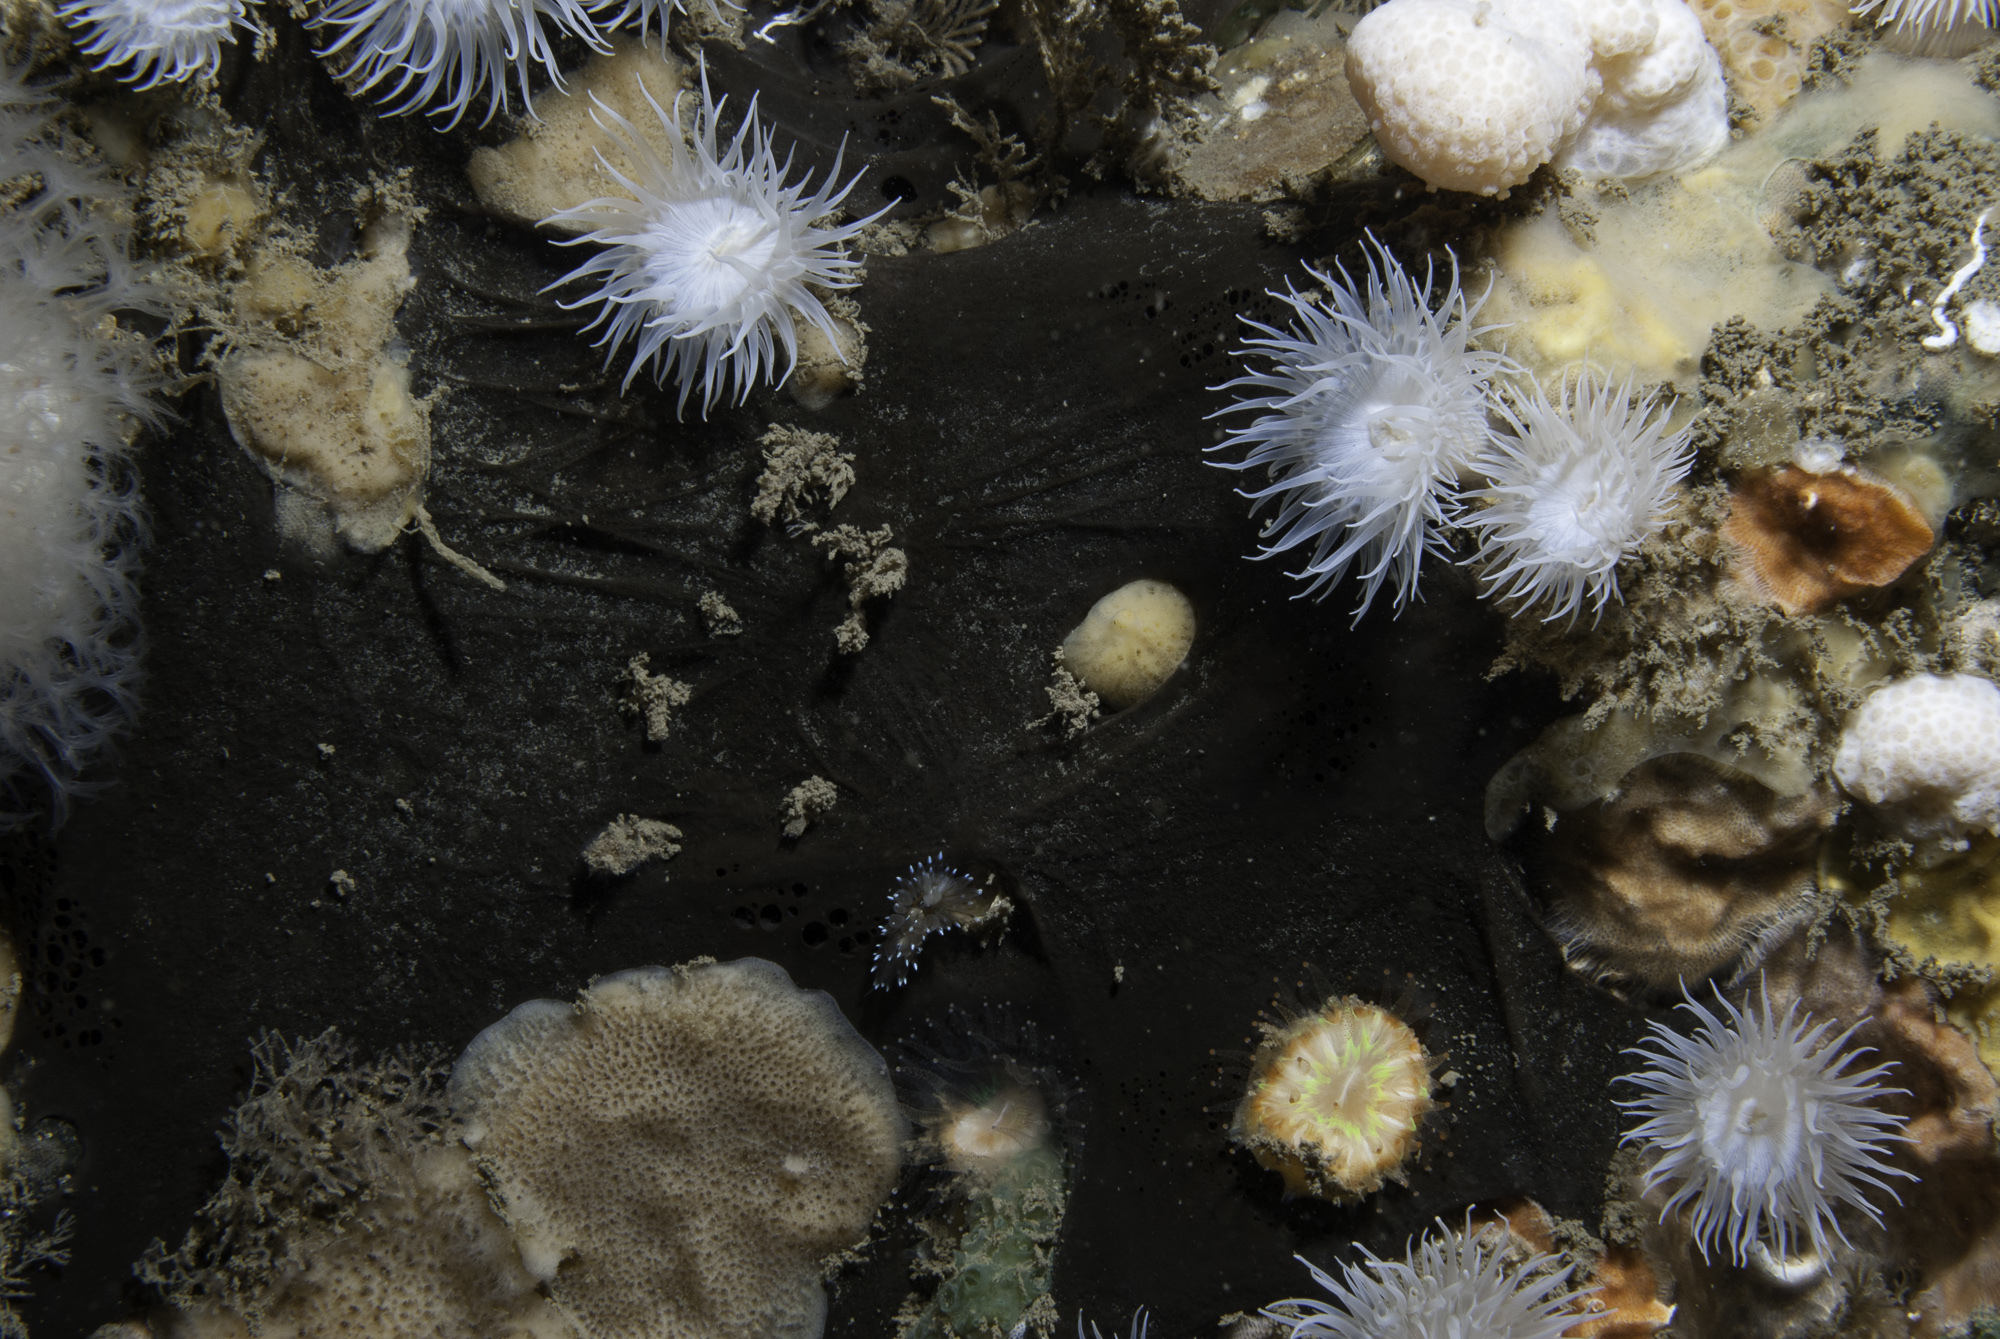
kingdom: Animalia
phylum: Porifera
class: Demospongiae
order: Tetractinellida
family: Ancorinidae
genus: Dercitus
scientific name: Dercitus bucklandi
